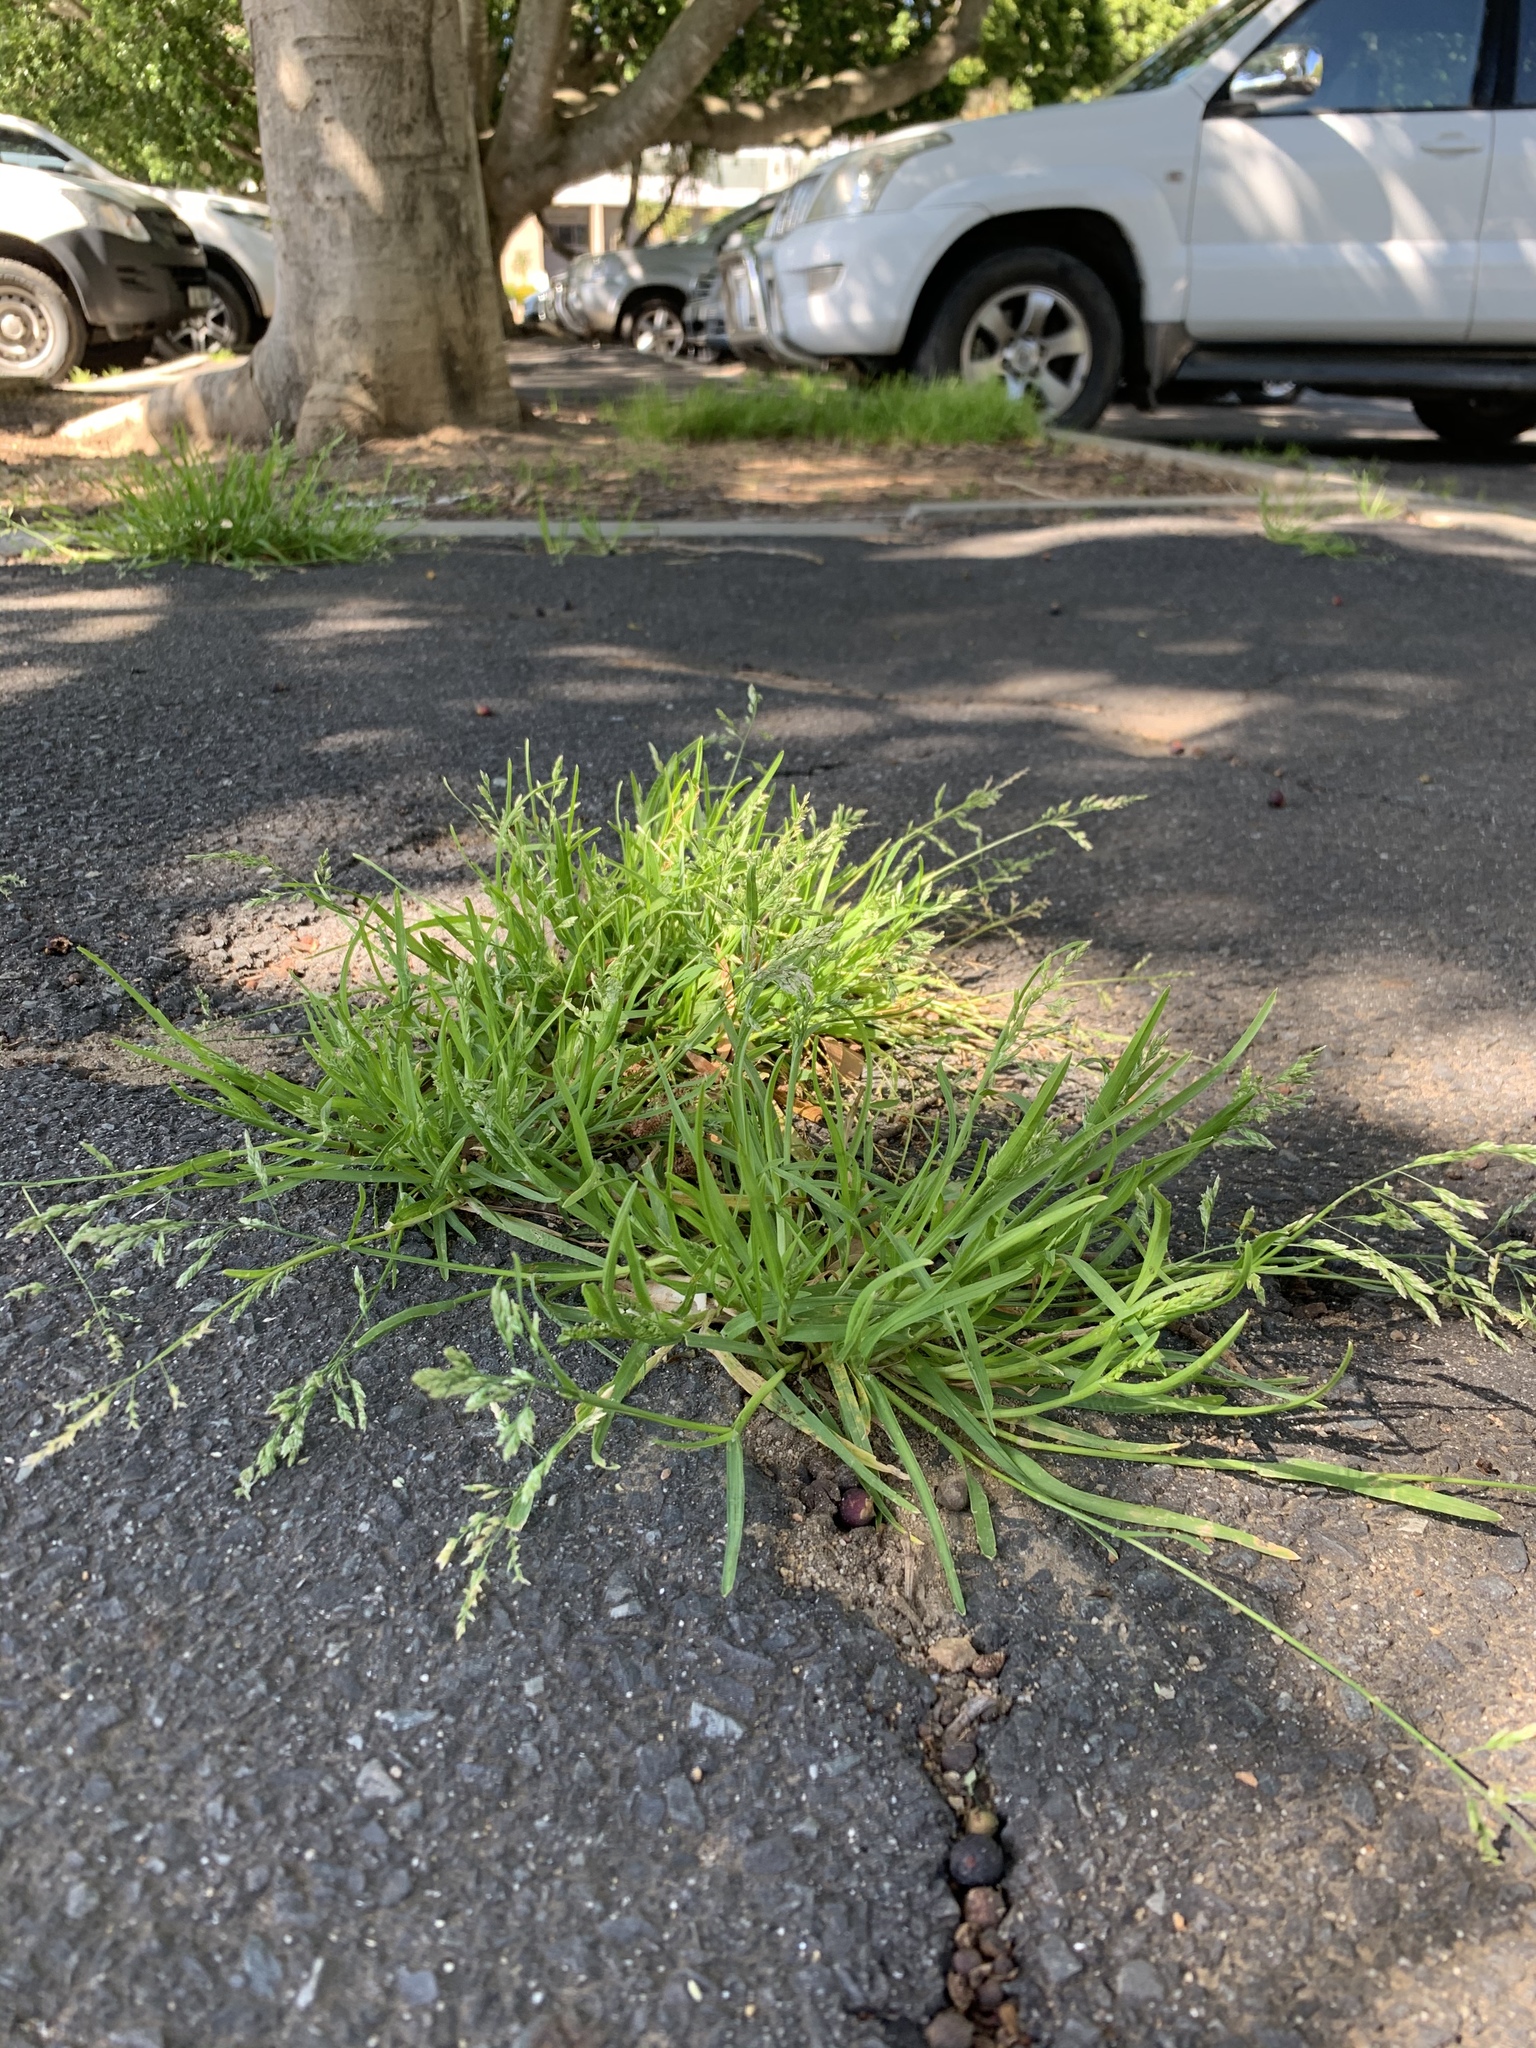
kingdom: Plantae
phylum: Tracheophyta
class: Liliopsida
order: Poales
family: Poaceae
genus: Poa
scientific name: Poa annua
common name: Annual bluegrass
